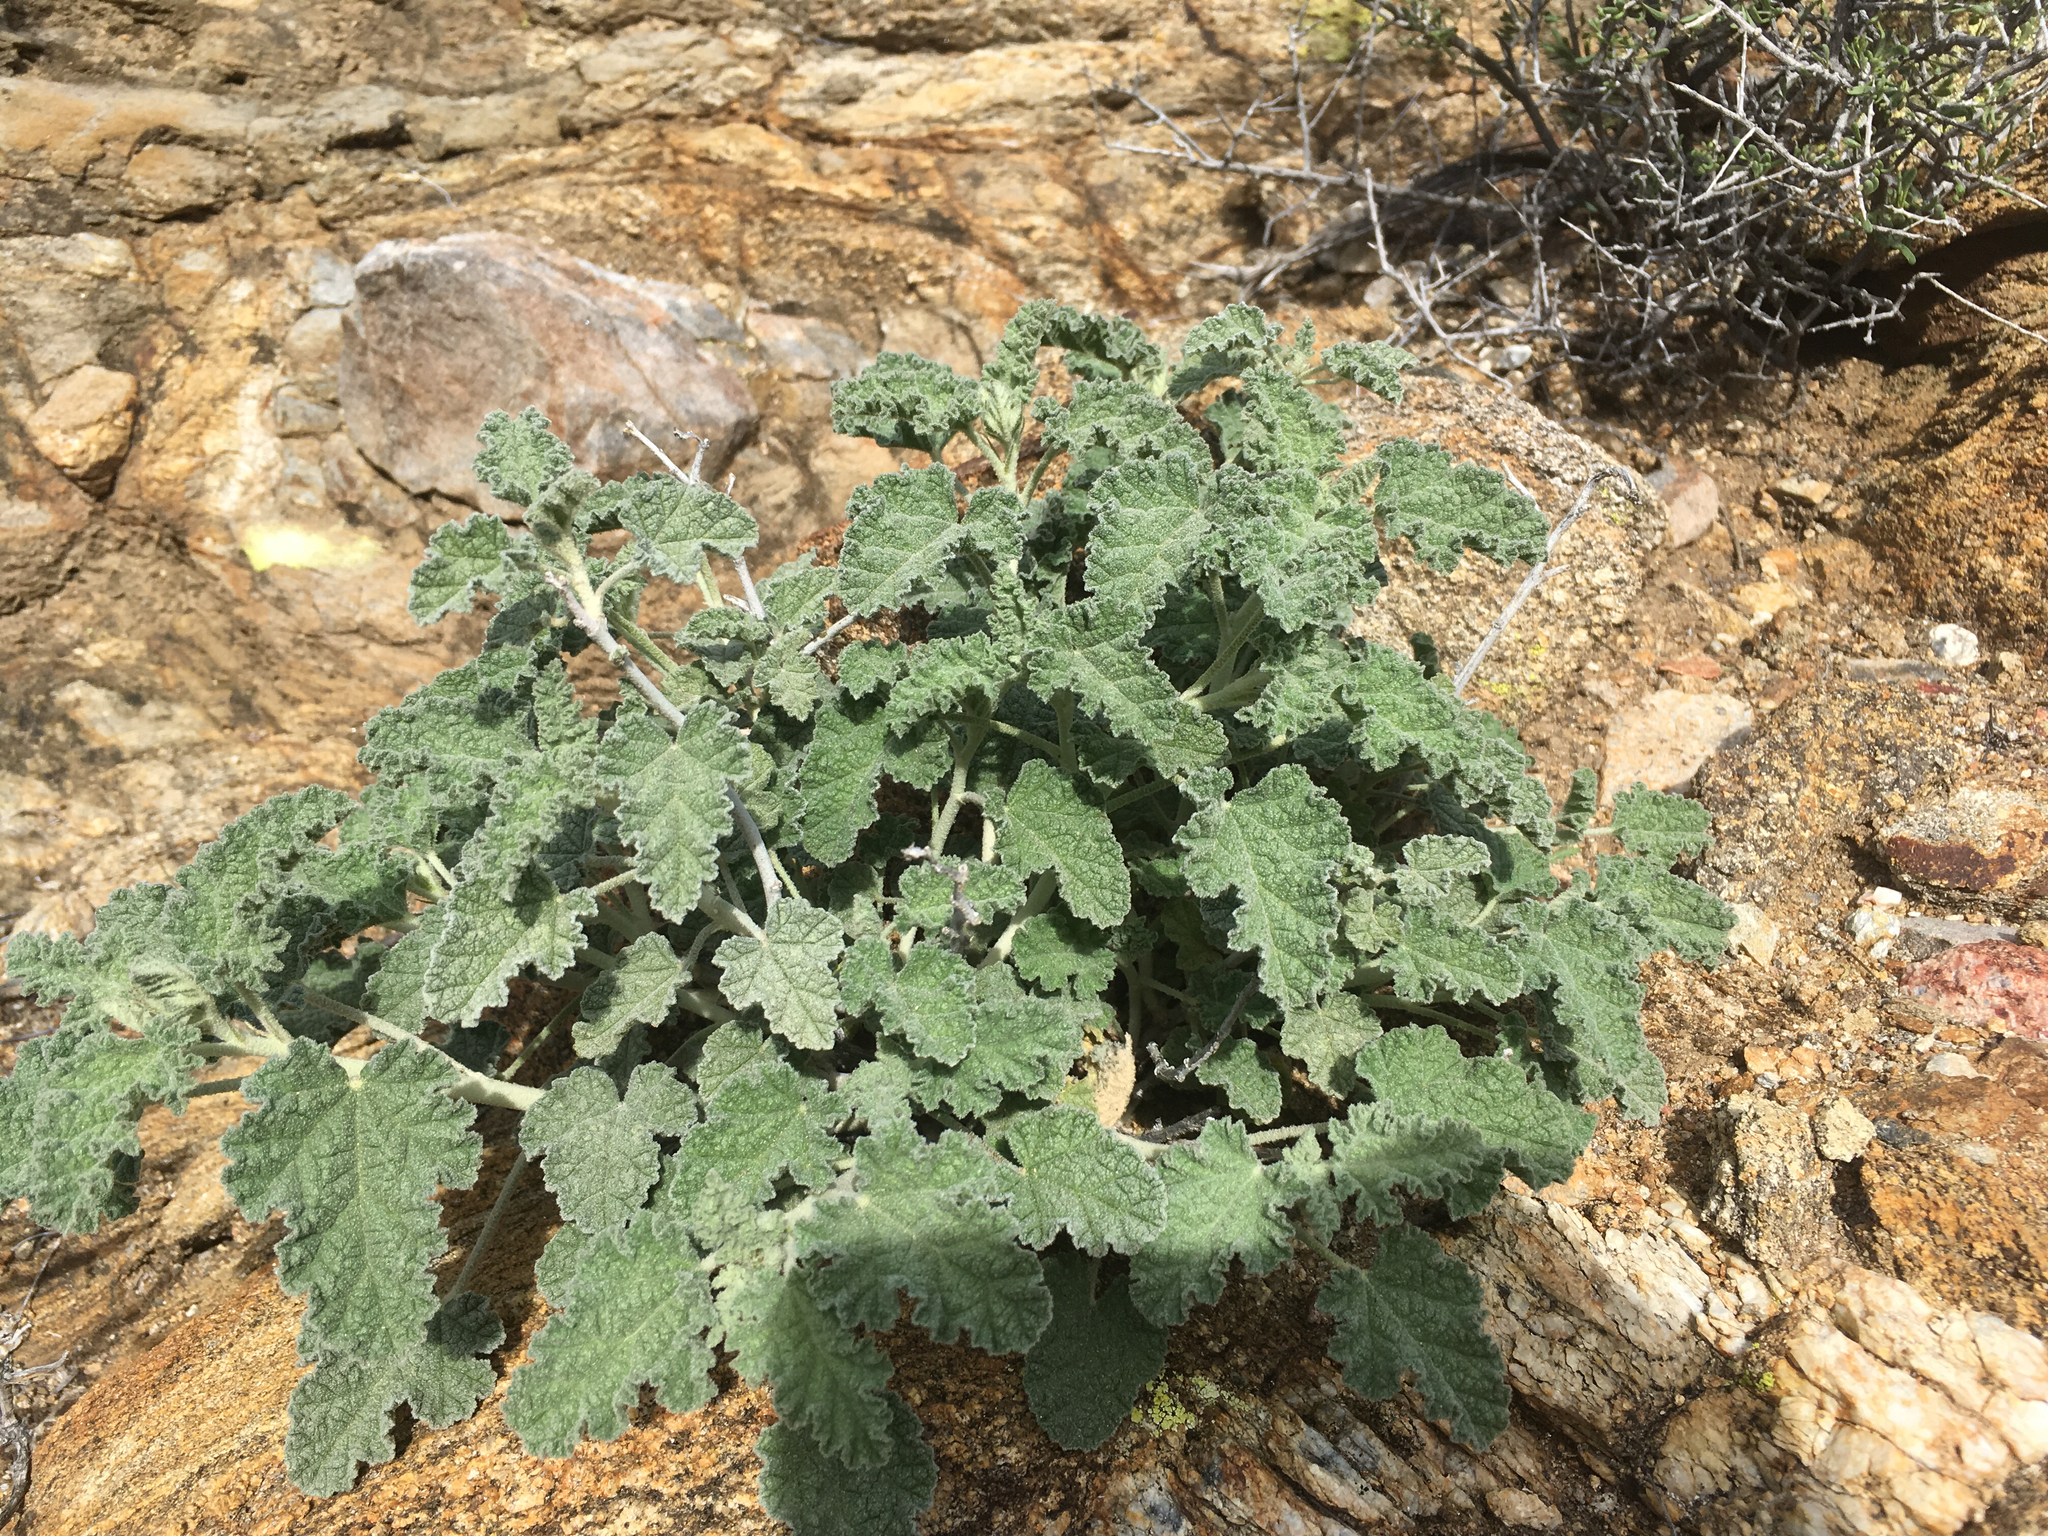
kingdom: Plantae
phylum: Tracheophyta
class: Magnoliopsida
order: Malvales
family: Malvaceae
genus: Sphaeralcea
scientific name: Sphaeralcea ambigua
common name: Apricot globe-mallow
